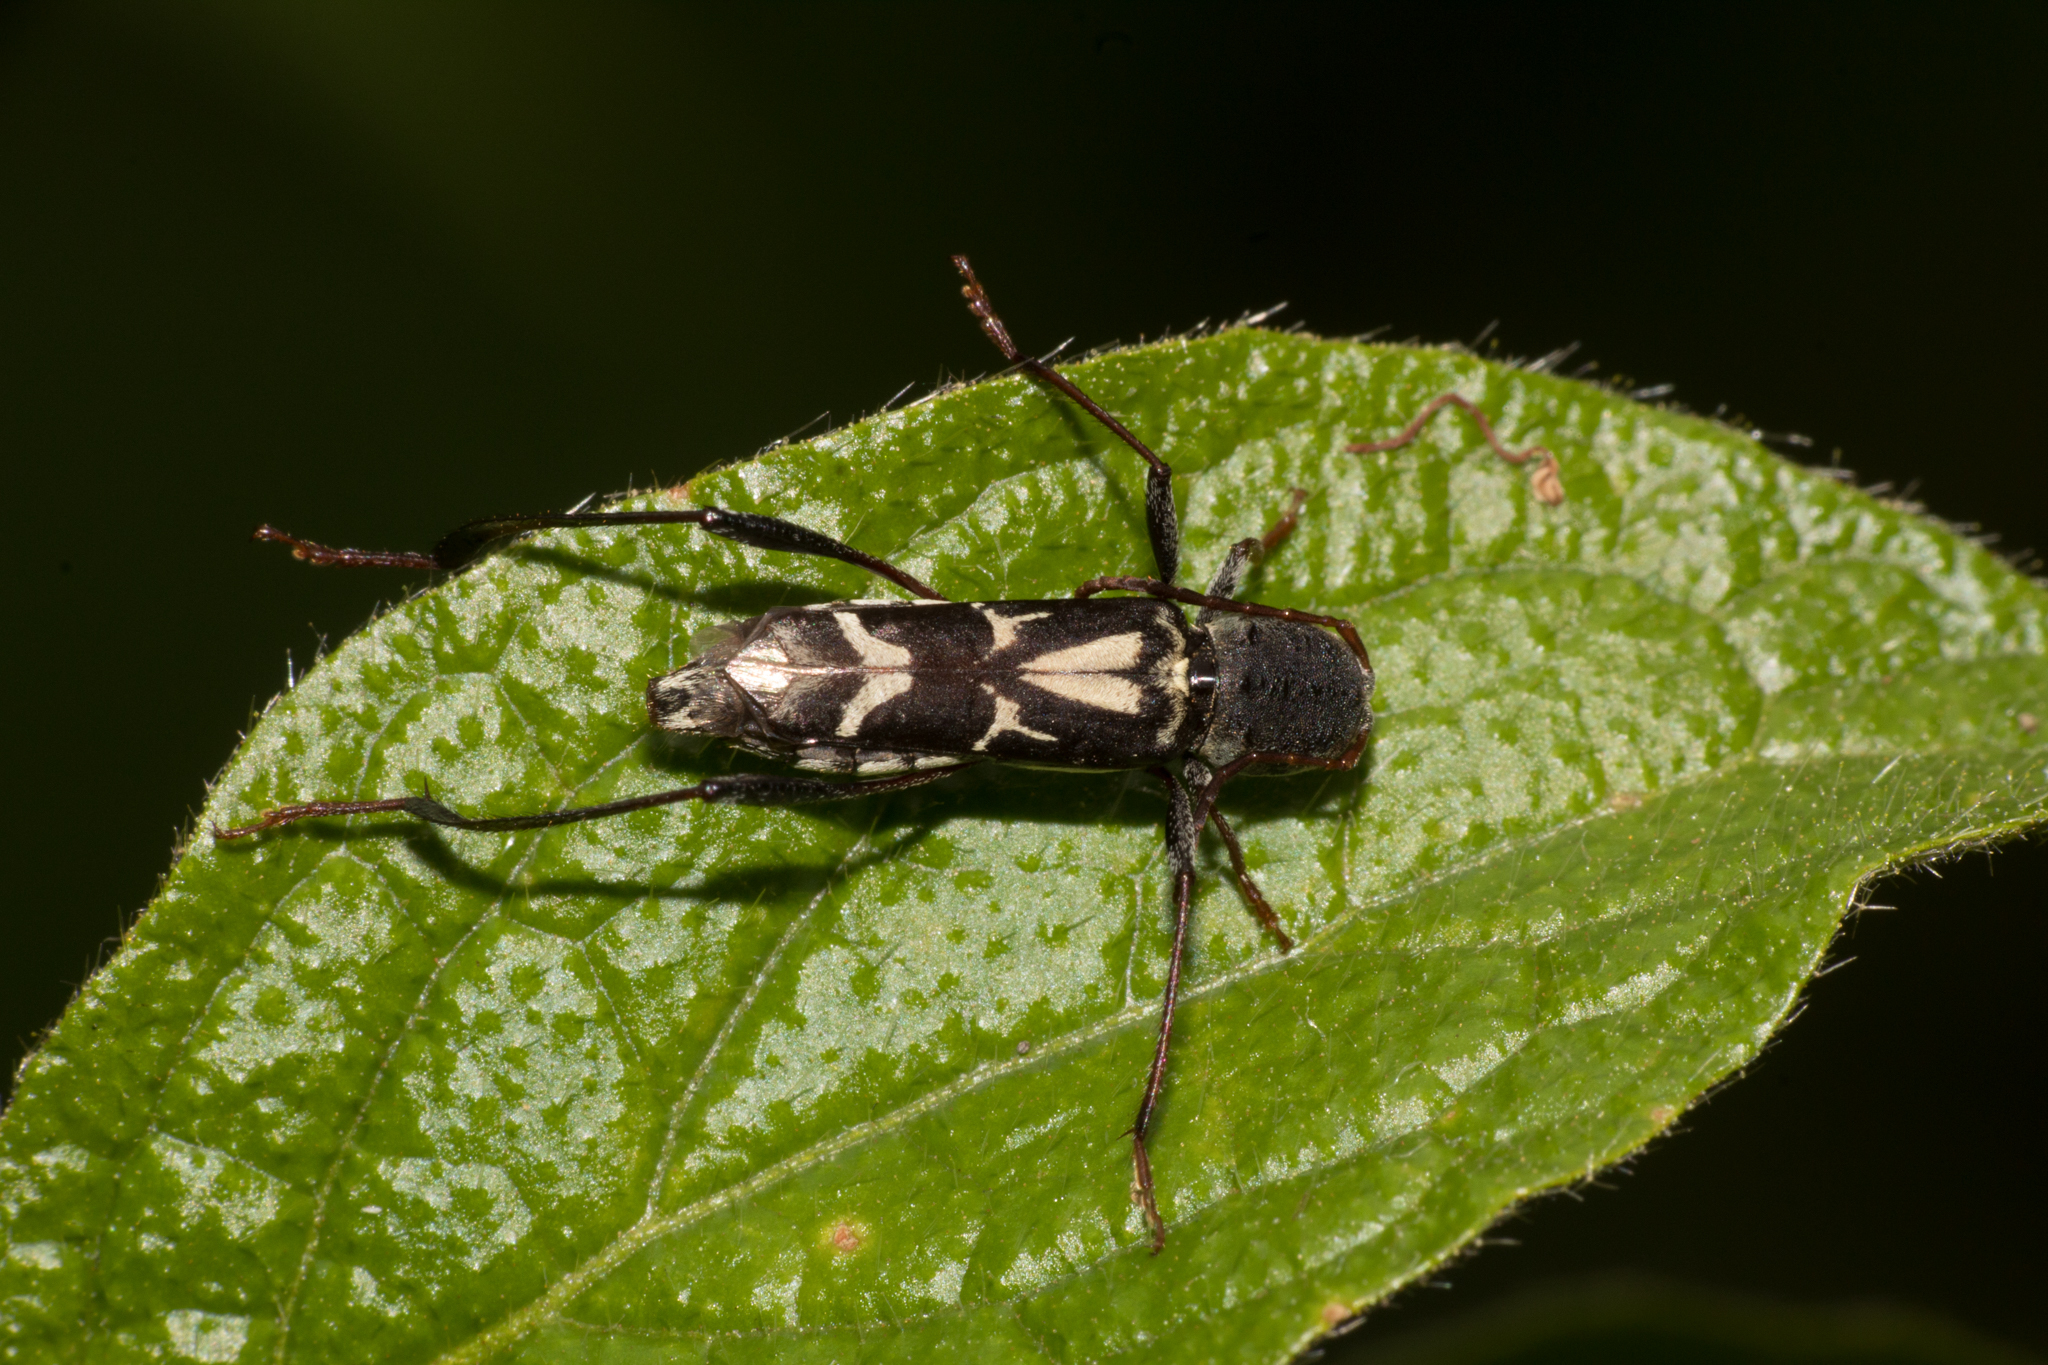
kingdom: Animalia
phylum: Arthropoda
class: Insecta
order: Coleoptera
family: Cerambycidae
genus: Neoclytus
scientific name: Neoclytus ypsilon
